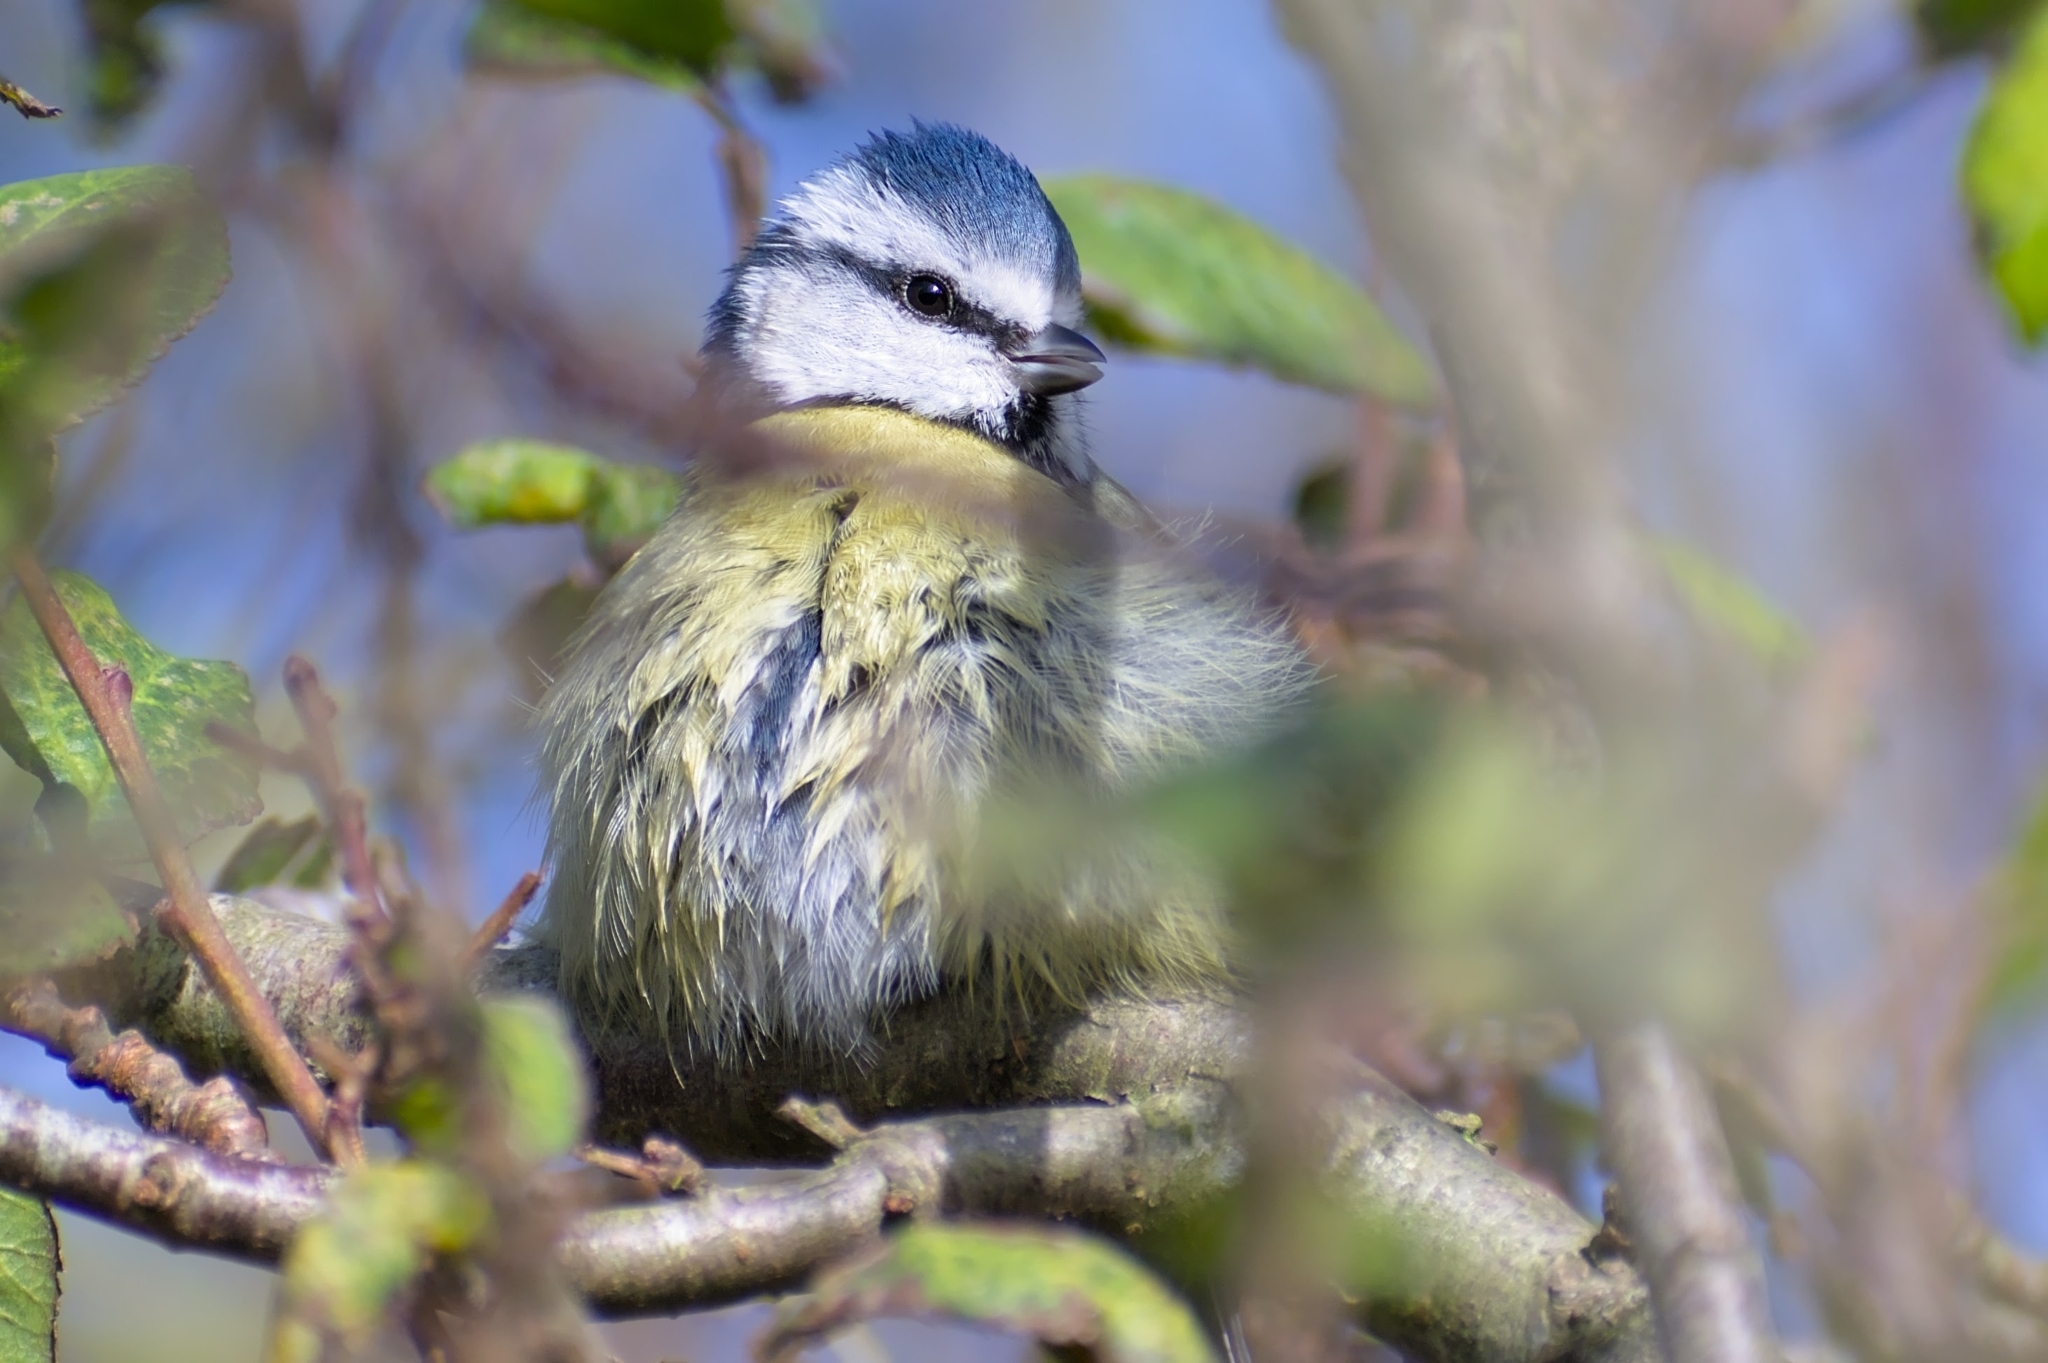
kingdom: Animalia
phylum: Chordata
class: Aves
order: Passeriformes
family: Paridae
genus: Cyanistes
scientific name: Cyanistes caeruleus
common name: Eurasian blue tit
